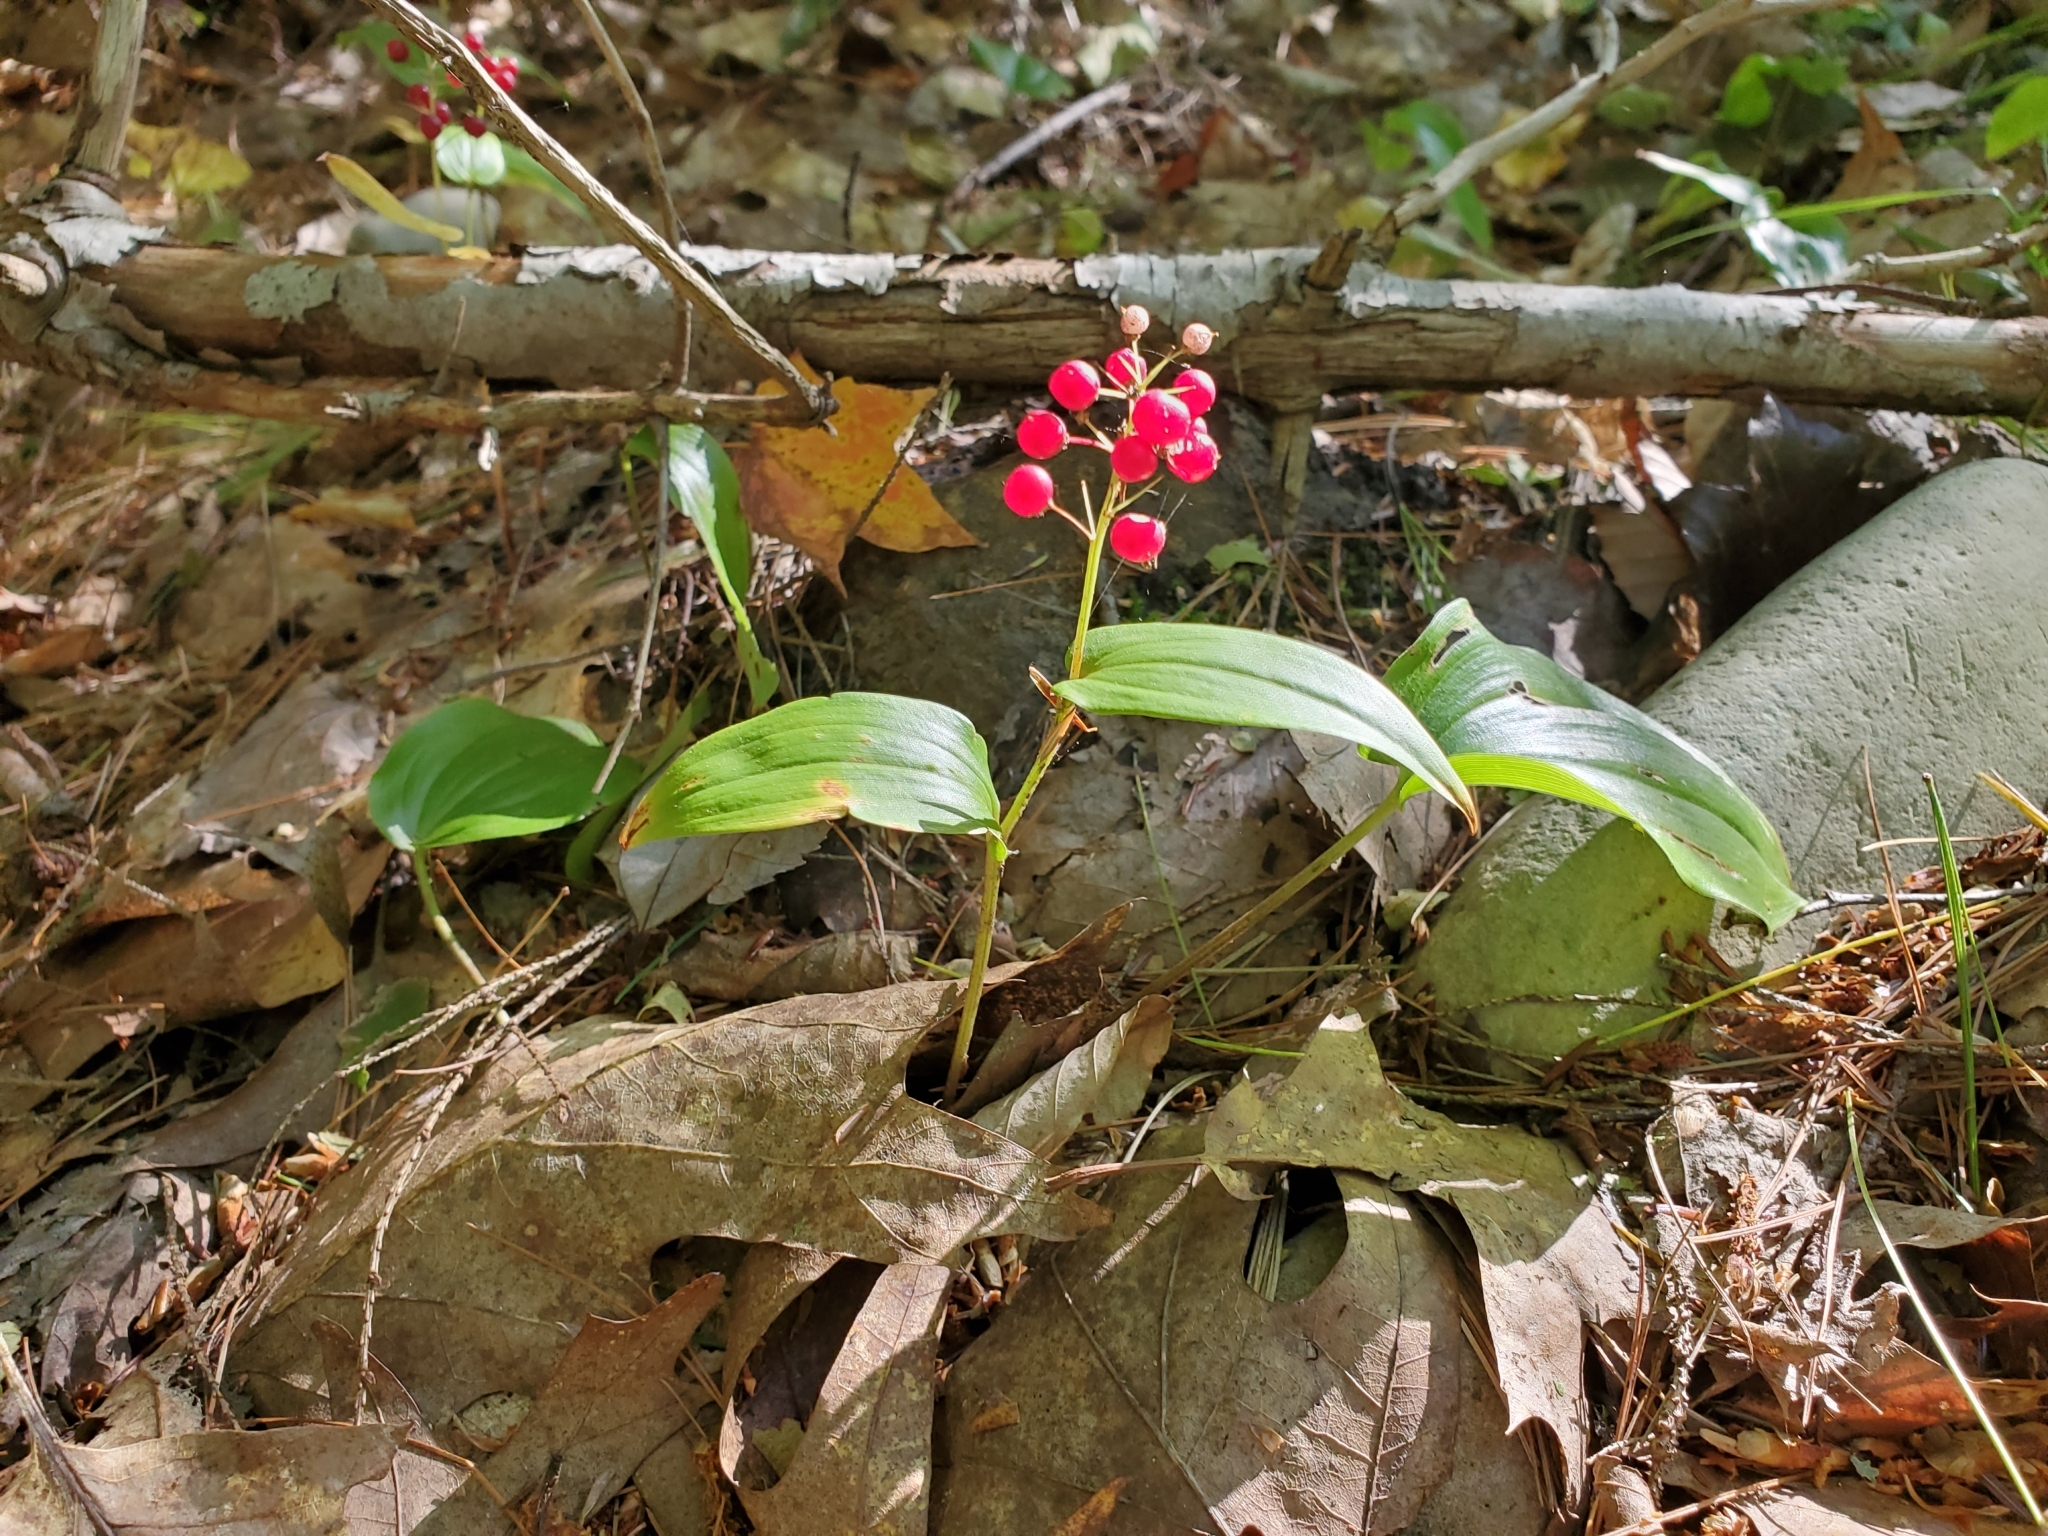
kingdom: Plantae
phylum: Tracheophyta
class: Liliopsida
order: Asparagales
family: Asparagaceae
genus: Maianthemum
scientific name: Maianthemum canadense
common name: False lily-of-the-valley
